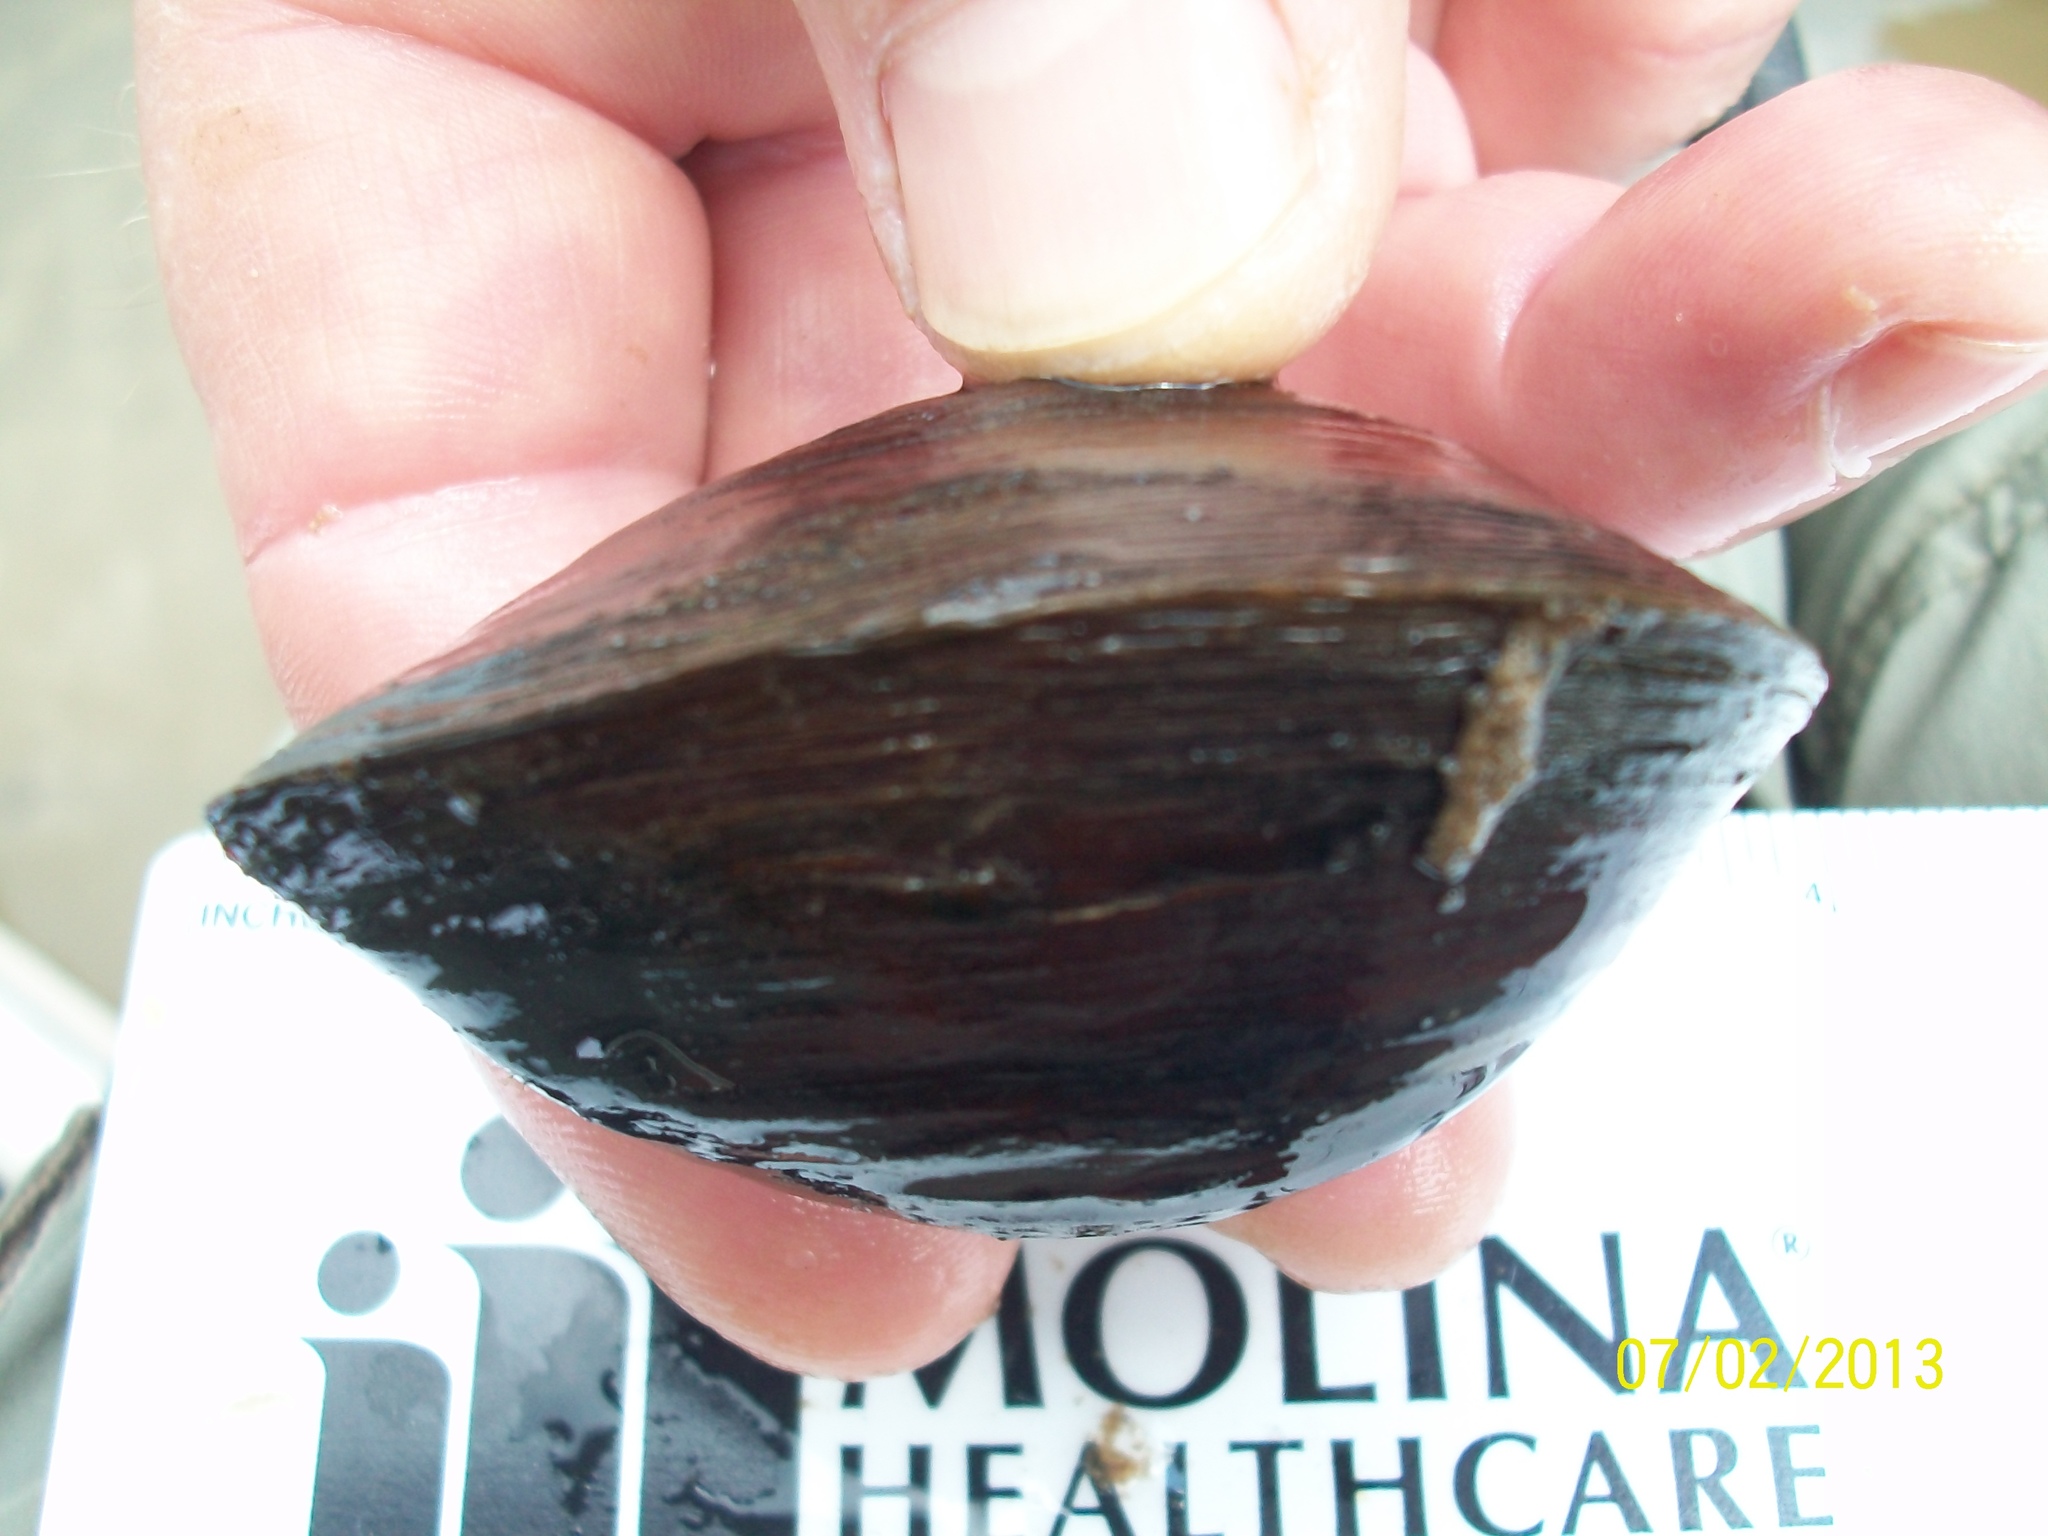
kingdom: Animalia
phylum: Mollusca
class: Bivalvia
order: Unionida
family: Unionidae
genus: Fusconaia
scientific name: Fusconaia chunii
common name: Texas pigtoe
